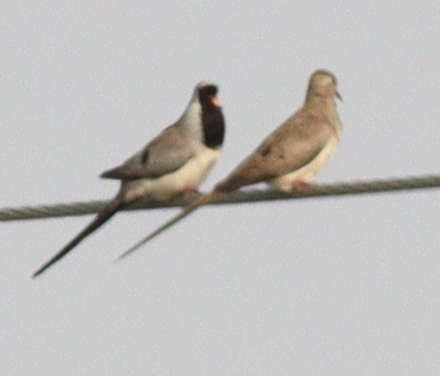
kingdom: Animalia
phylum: Chordata
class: Aves
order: Columbiformes
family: Columbidae
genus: Oena
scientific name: Oena capensis
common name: Namaqua dove
